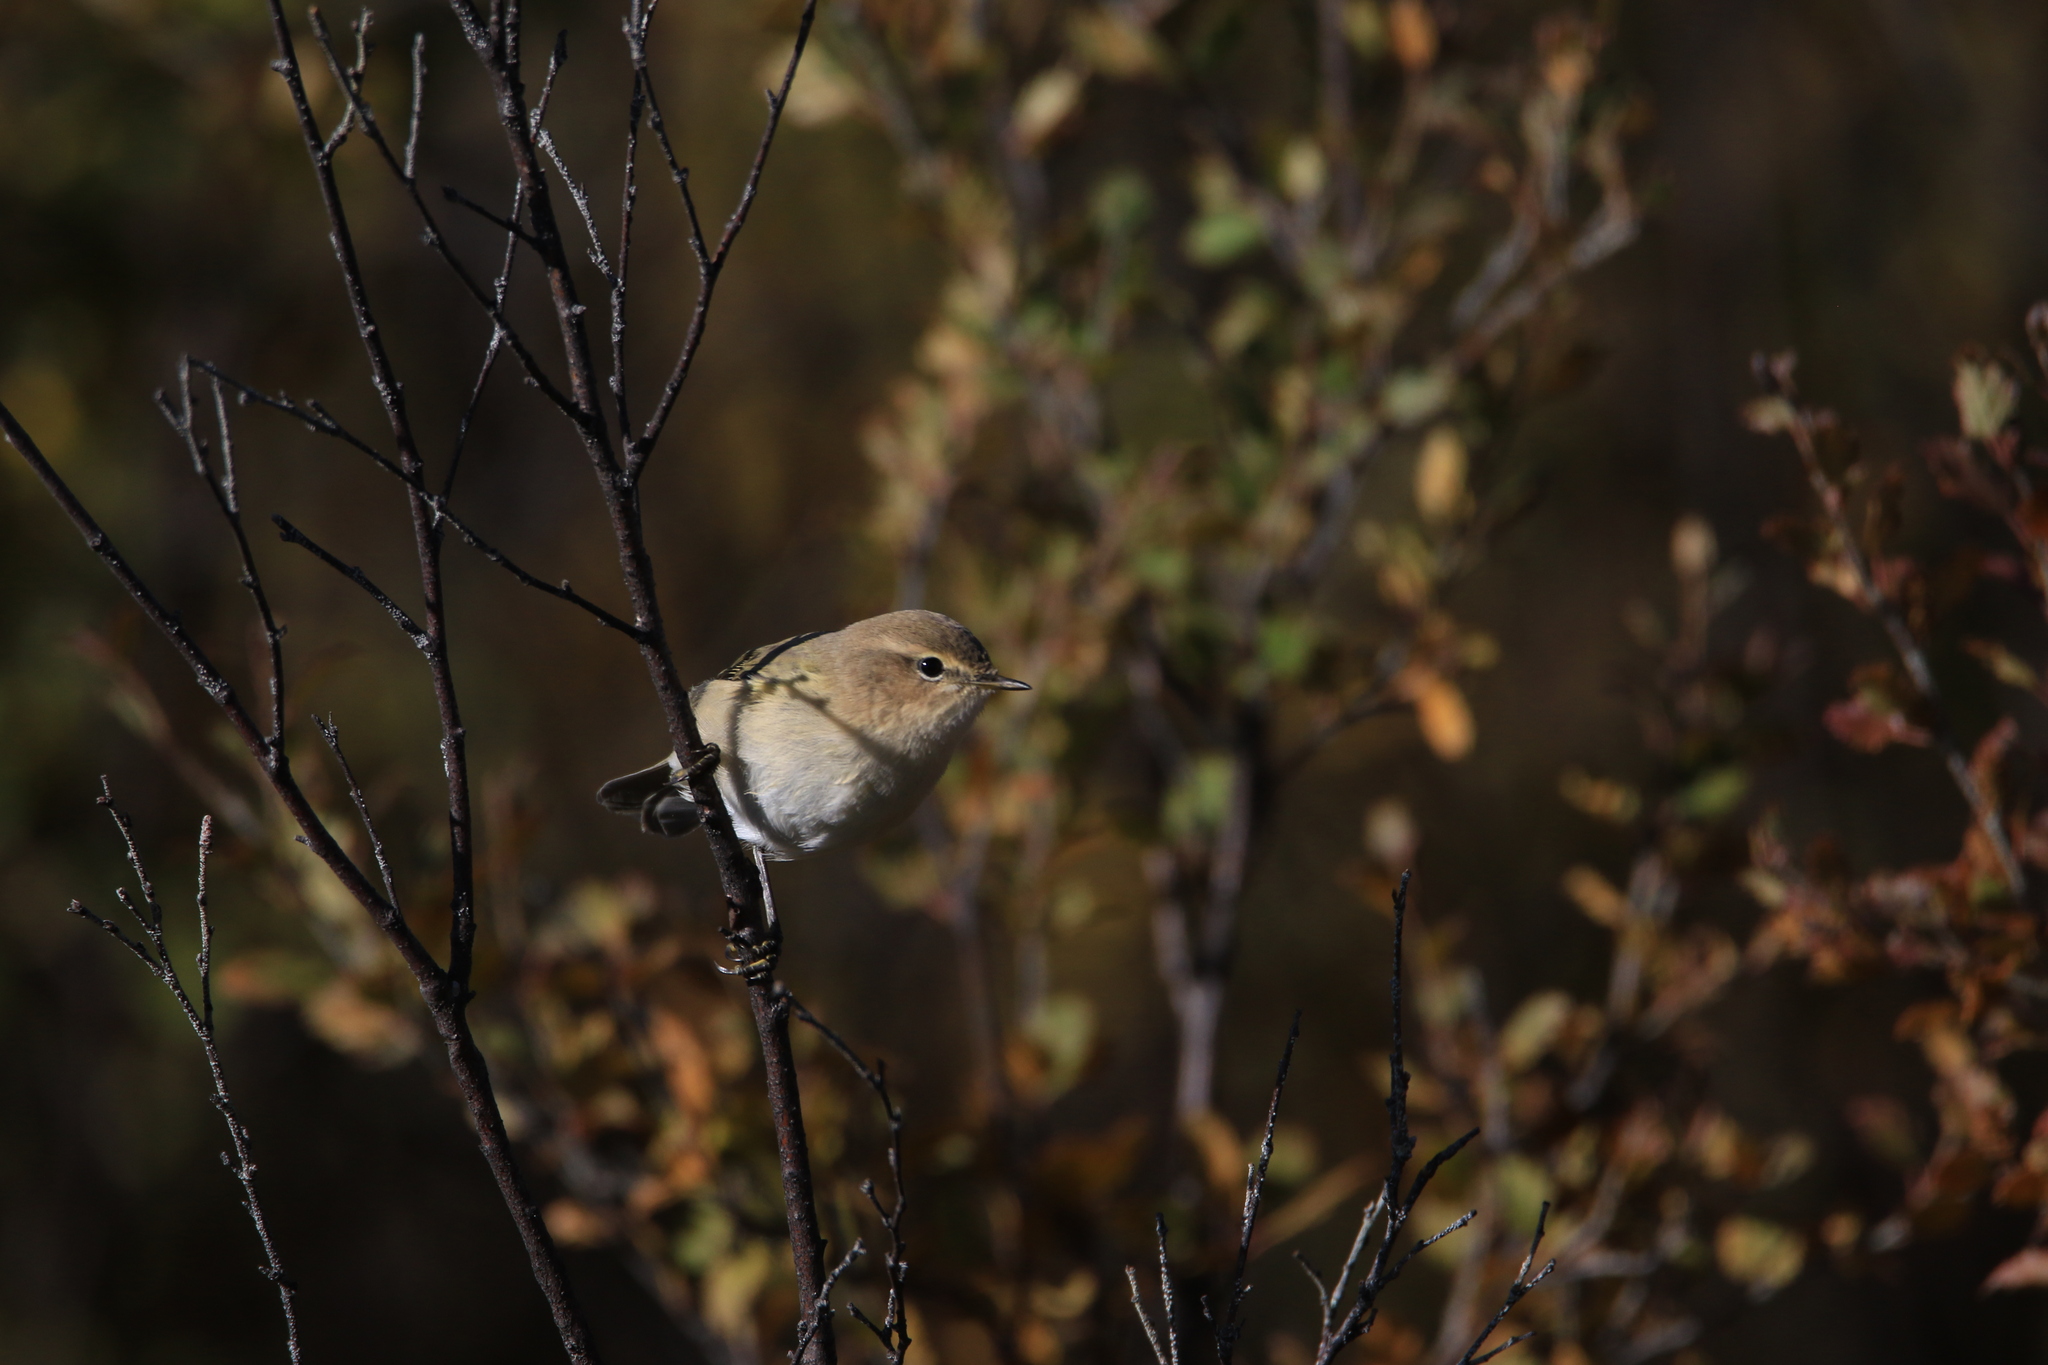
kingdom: Animalia
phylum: Chordata
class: Aves
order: Passeriformes
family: Phylloscopidae
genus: Phylloscopus
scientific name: Phylloscopus collybita
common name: Common chiffchaff
